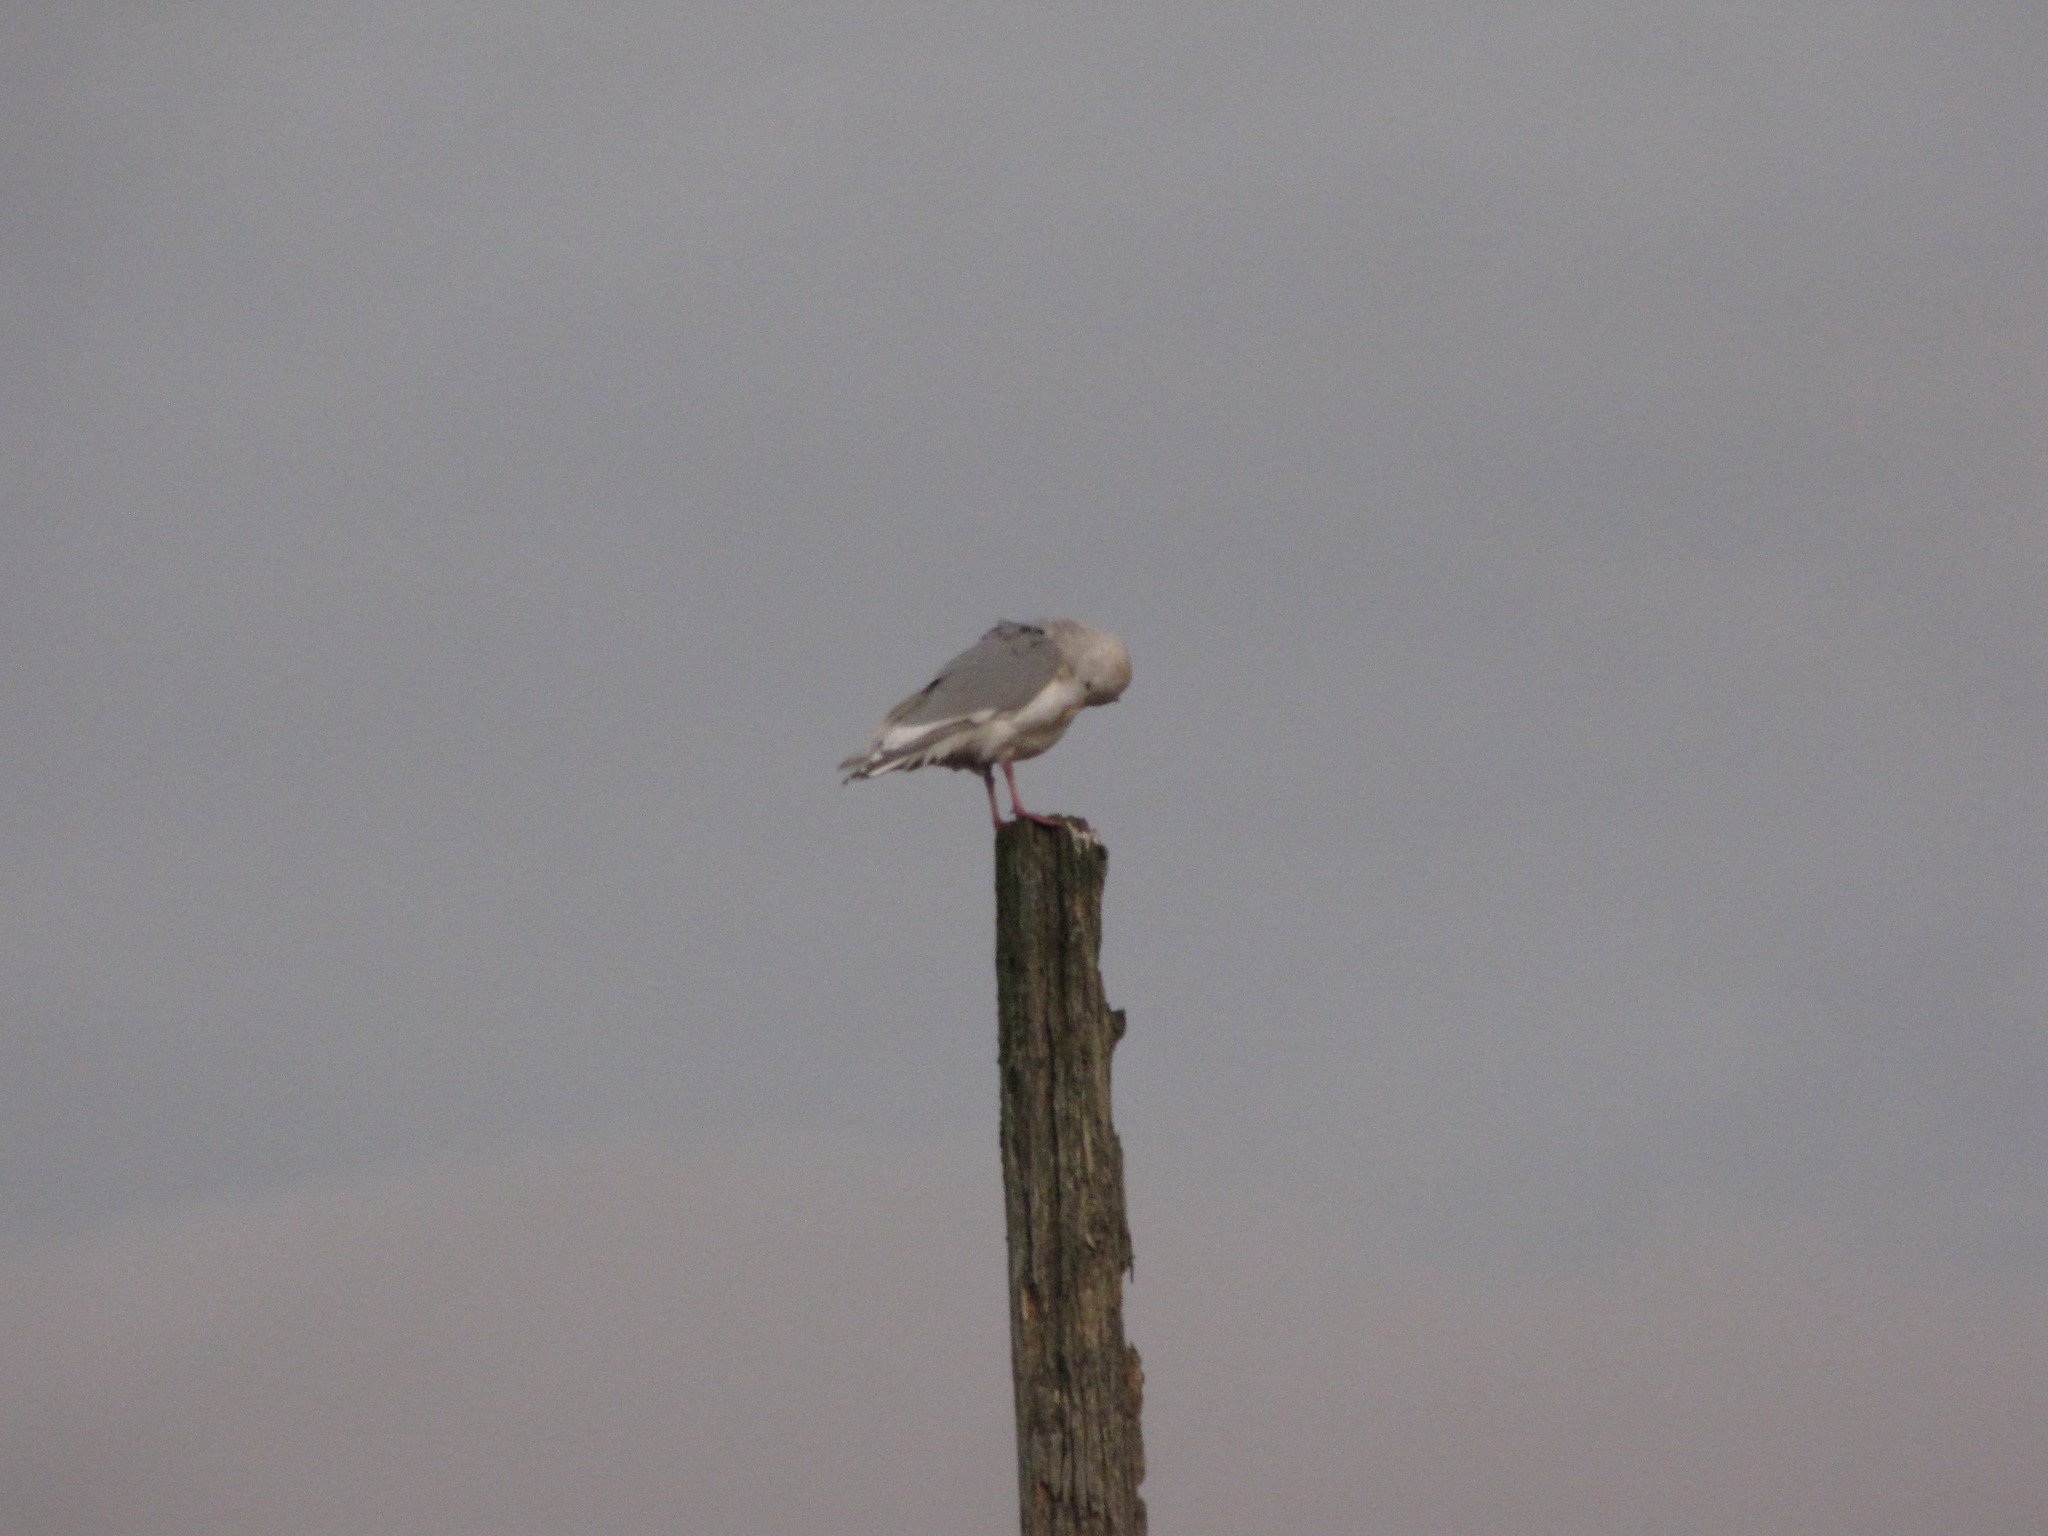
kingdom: Animalia
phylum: Chordata
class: Aves
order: Charadriiformes
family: Laridae
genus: Larus
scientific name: Larus glaucescens
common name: Glaucous-winged gull
